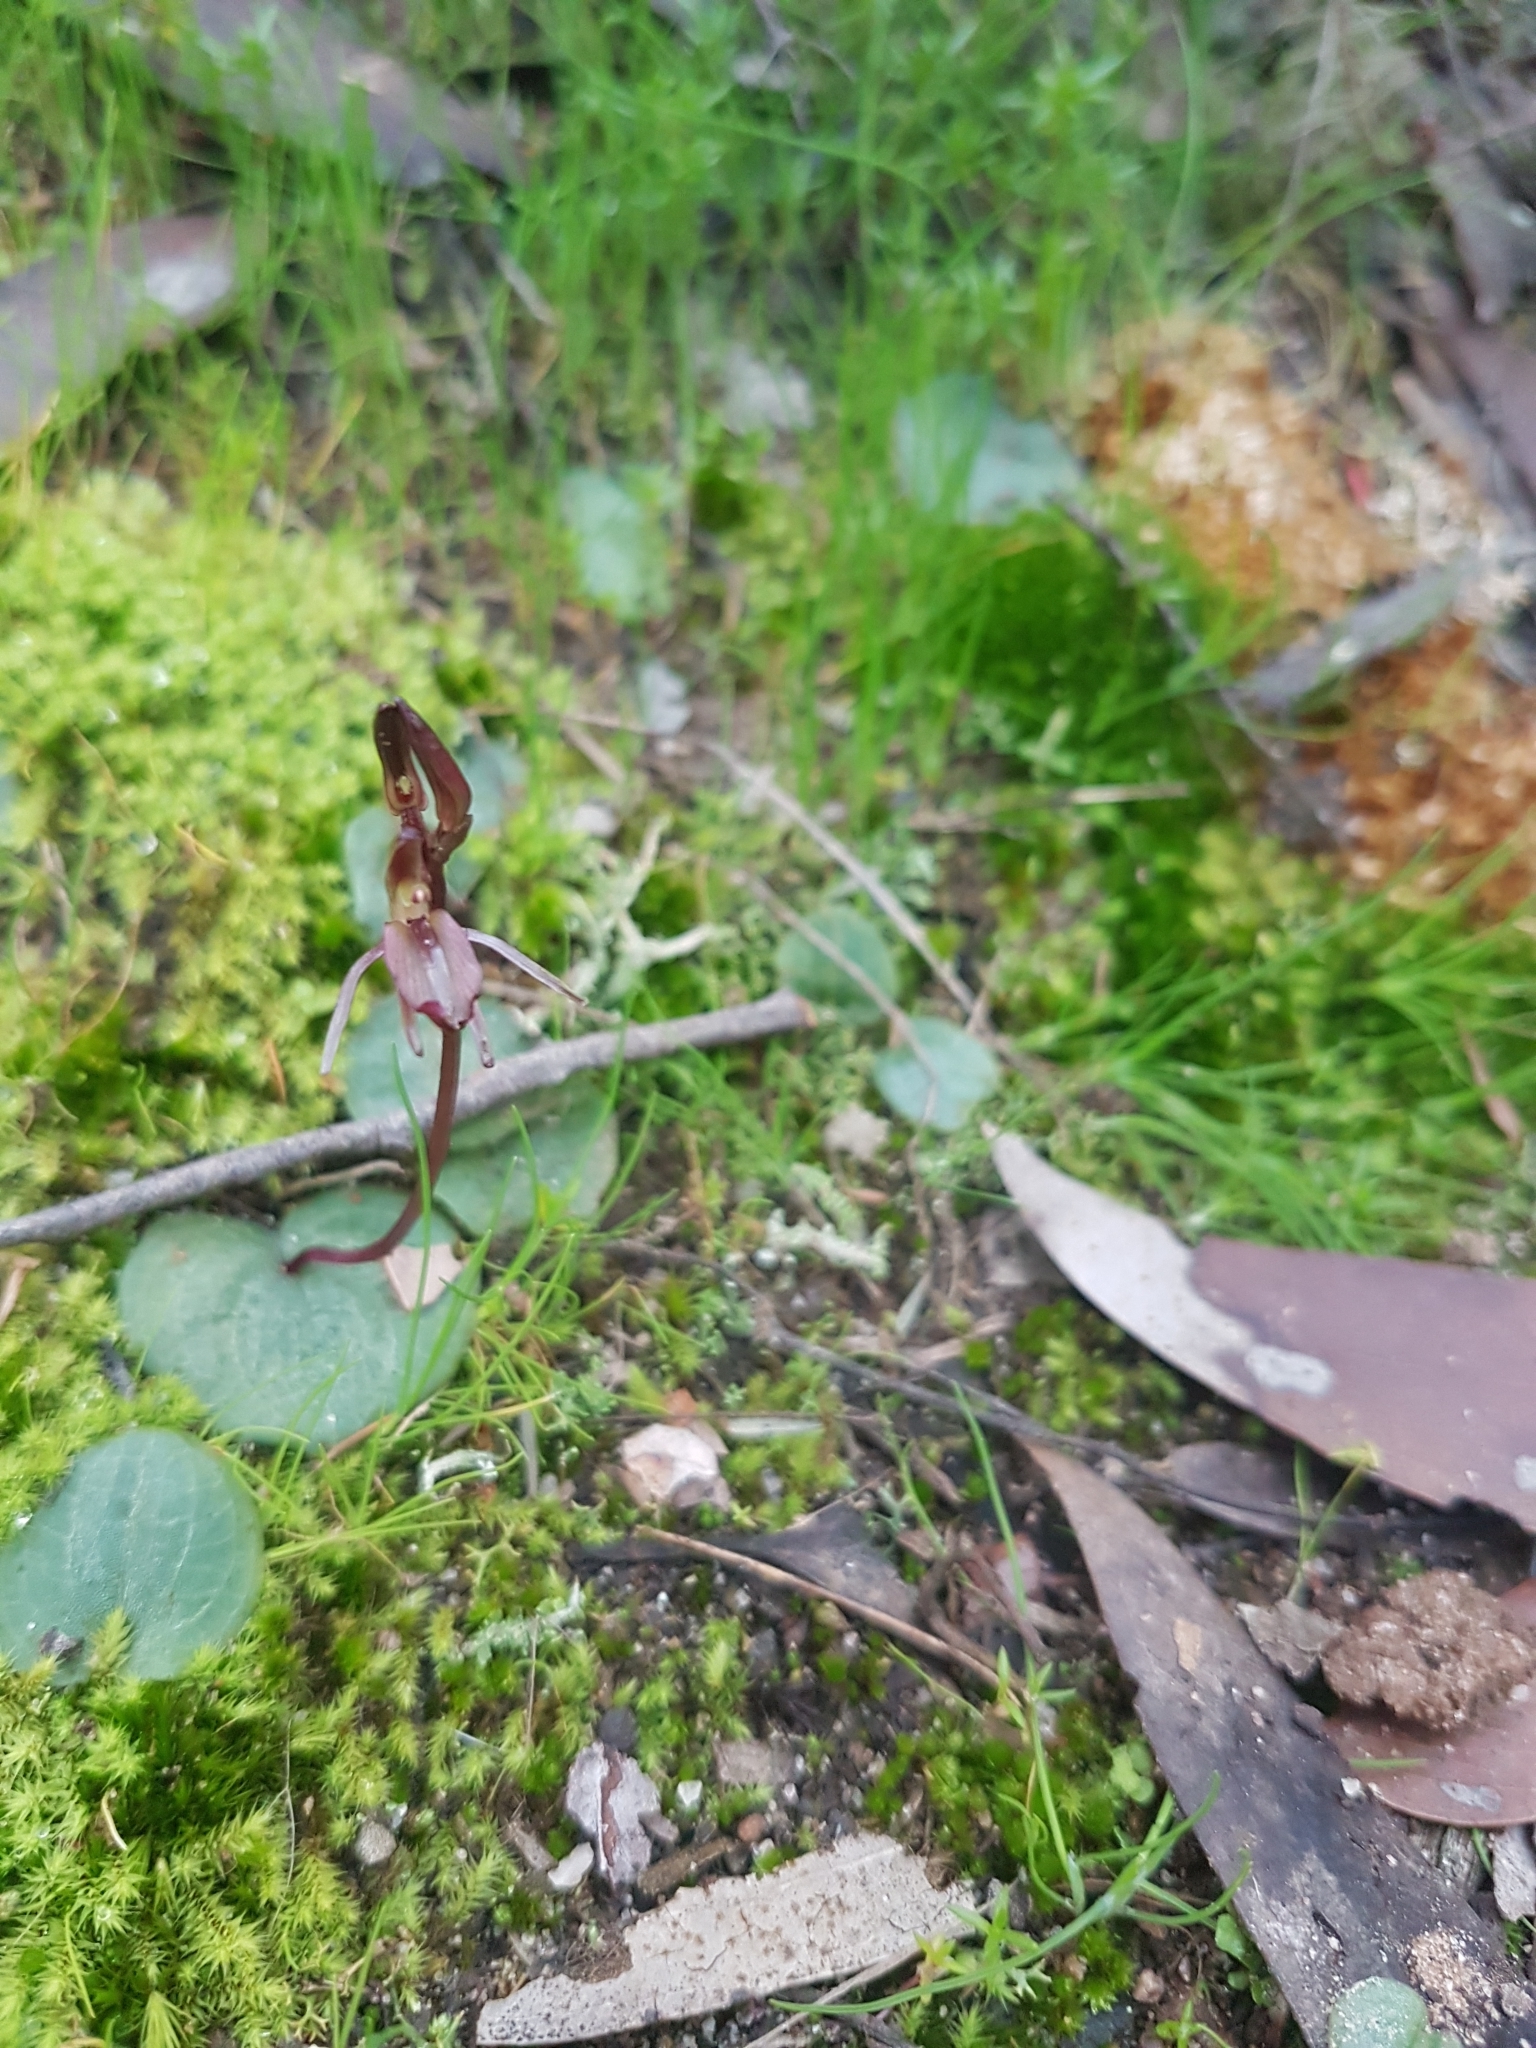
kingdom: Plantae
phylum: Tracheophyta
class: Liliopsida
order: Asparagales
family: Orchidaceae
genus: Cyrtostylis
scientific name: Cyrtostylis robusta
